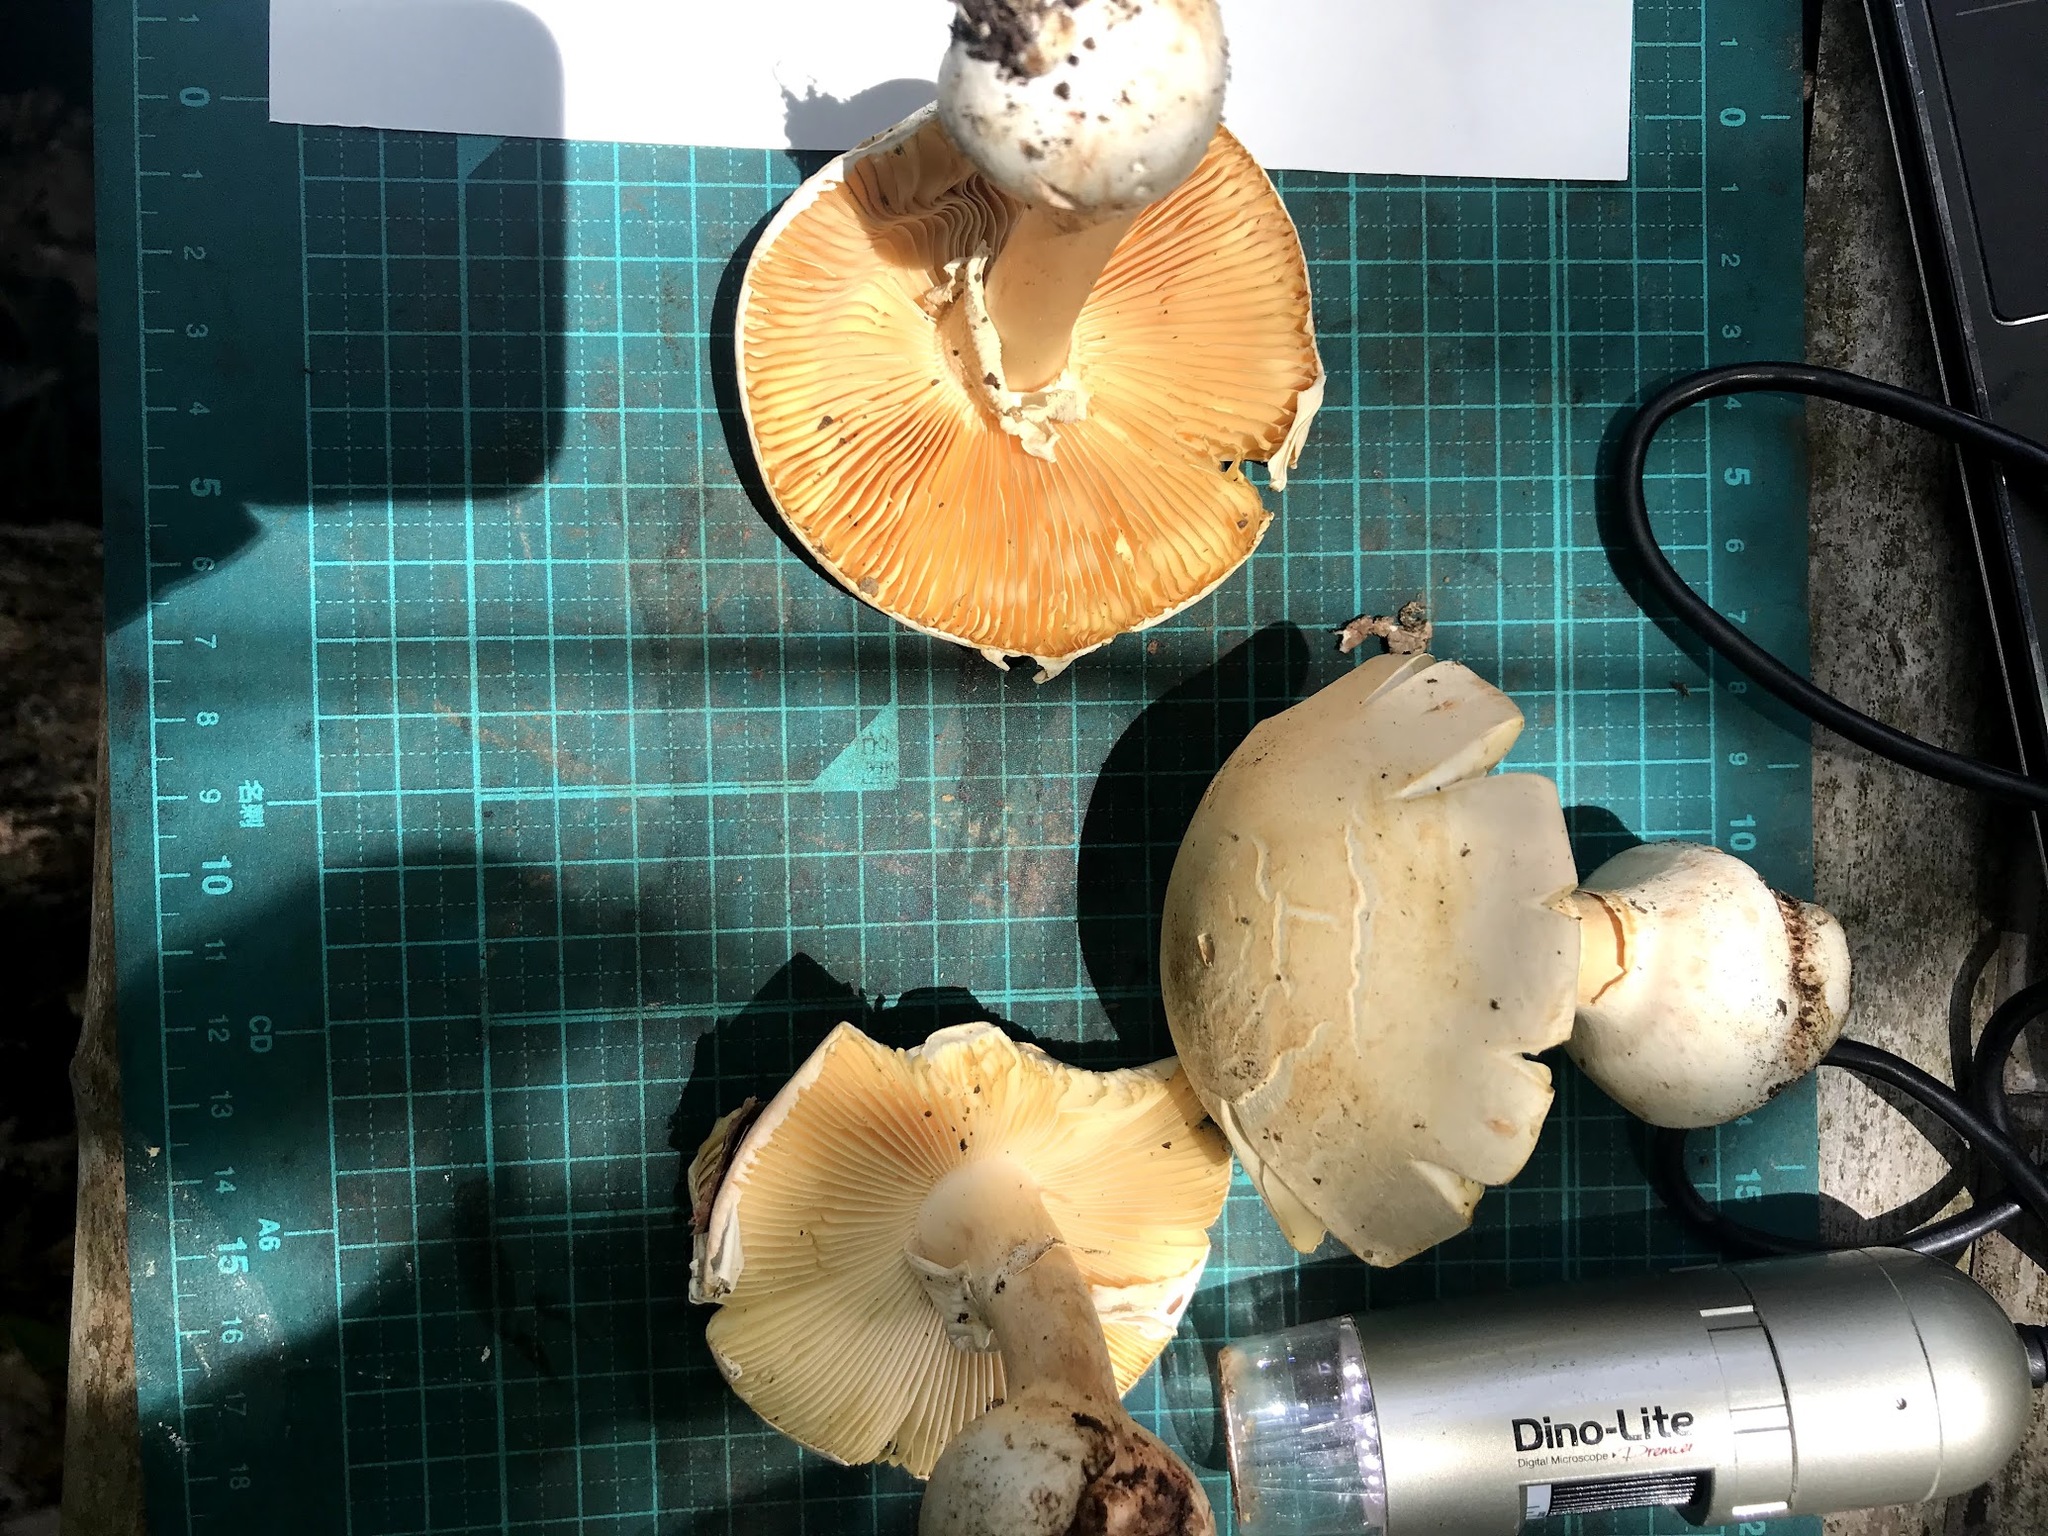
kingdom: Fungi
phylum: Basidiomycota
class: Agaricomycetes
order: Agaricales
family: Amanitaceae
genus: Amanita
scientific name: Amanita gymnopus
